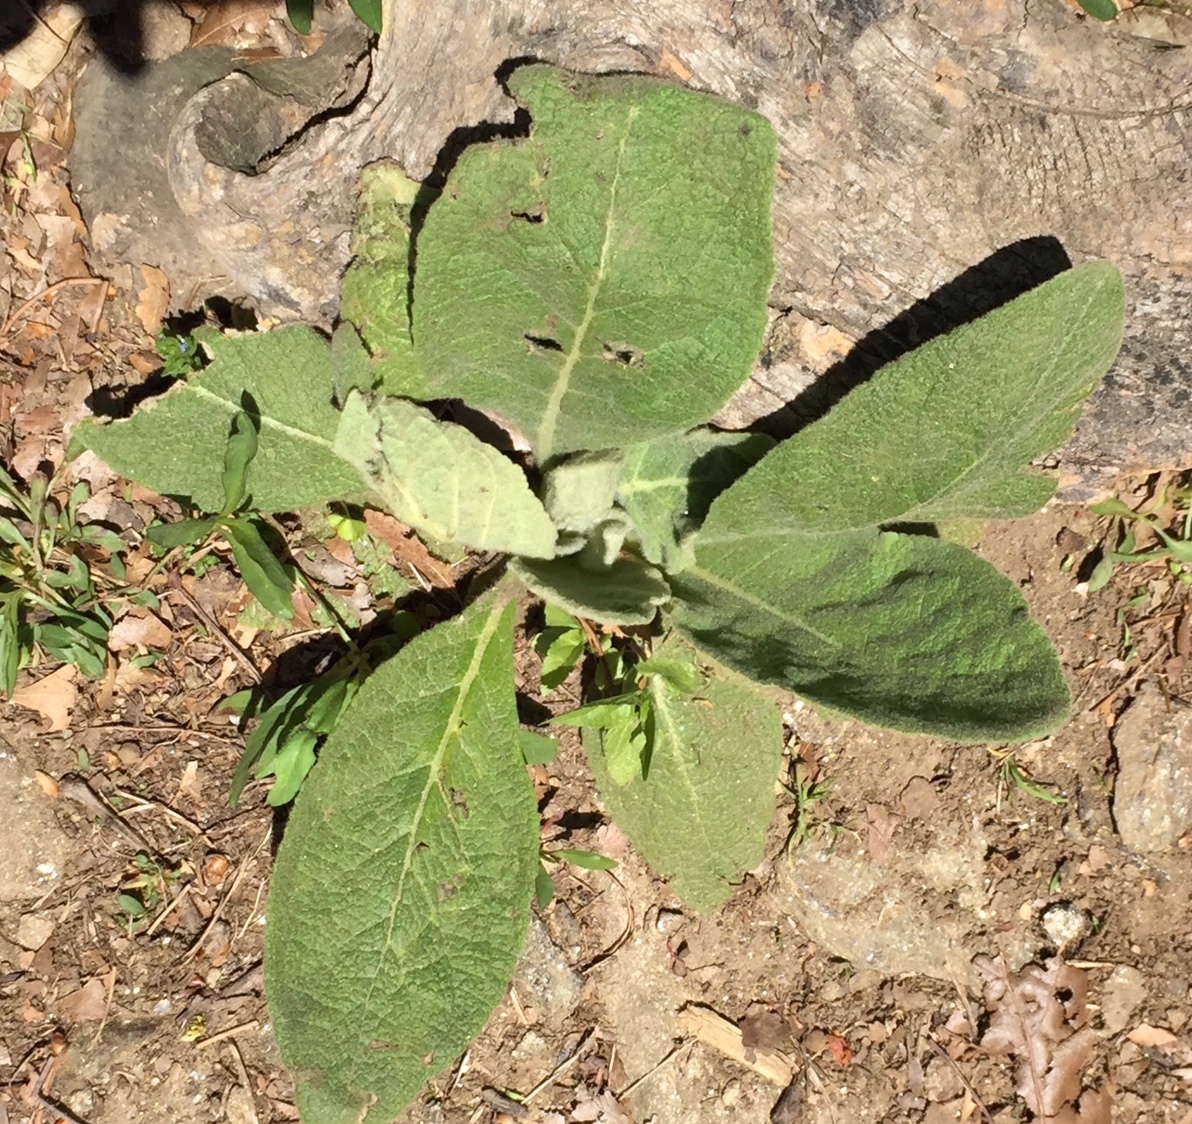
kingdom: Plantae
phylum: Tracheophyta
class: Magnoliopsida
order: Lamiales
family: Scrophulariaceae
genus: Verbascum
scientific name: Verbascum thapsus
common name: Common mullein
